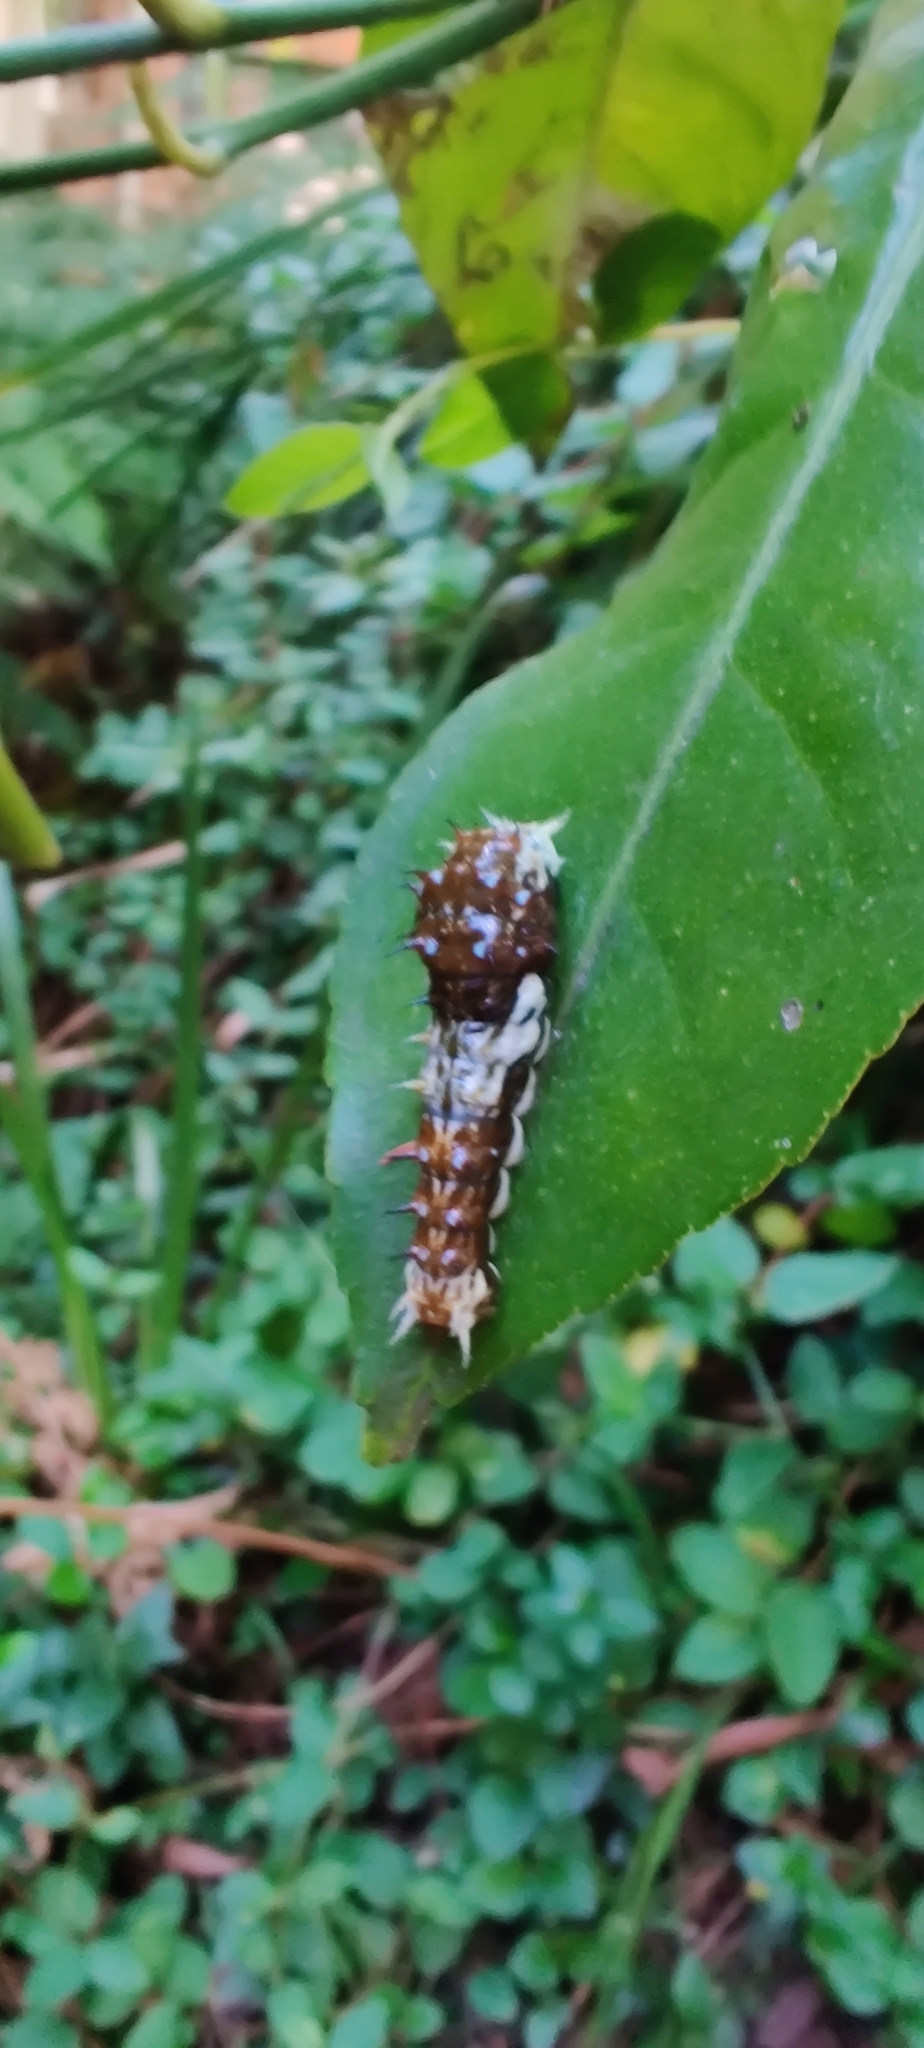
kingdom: Animalia
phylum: Arthropoda
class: Insecta
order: Lepidoptera
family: Papilionidae
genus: Papilio
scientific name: Papilio aegeus
